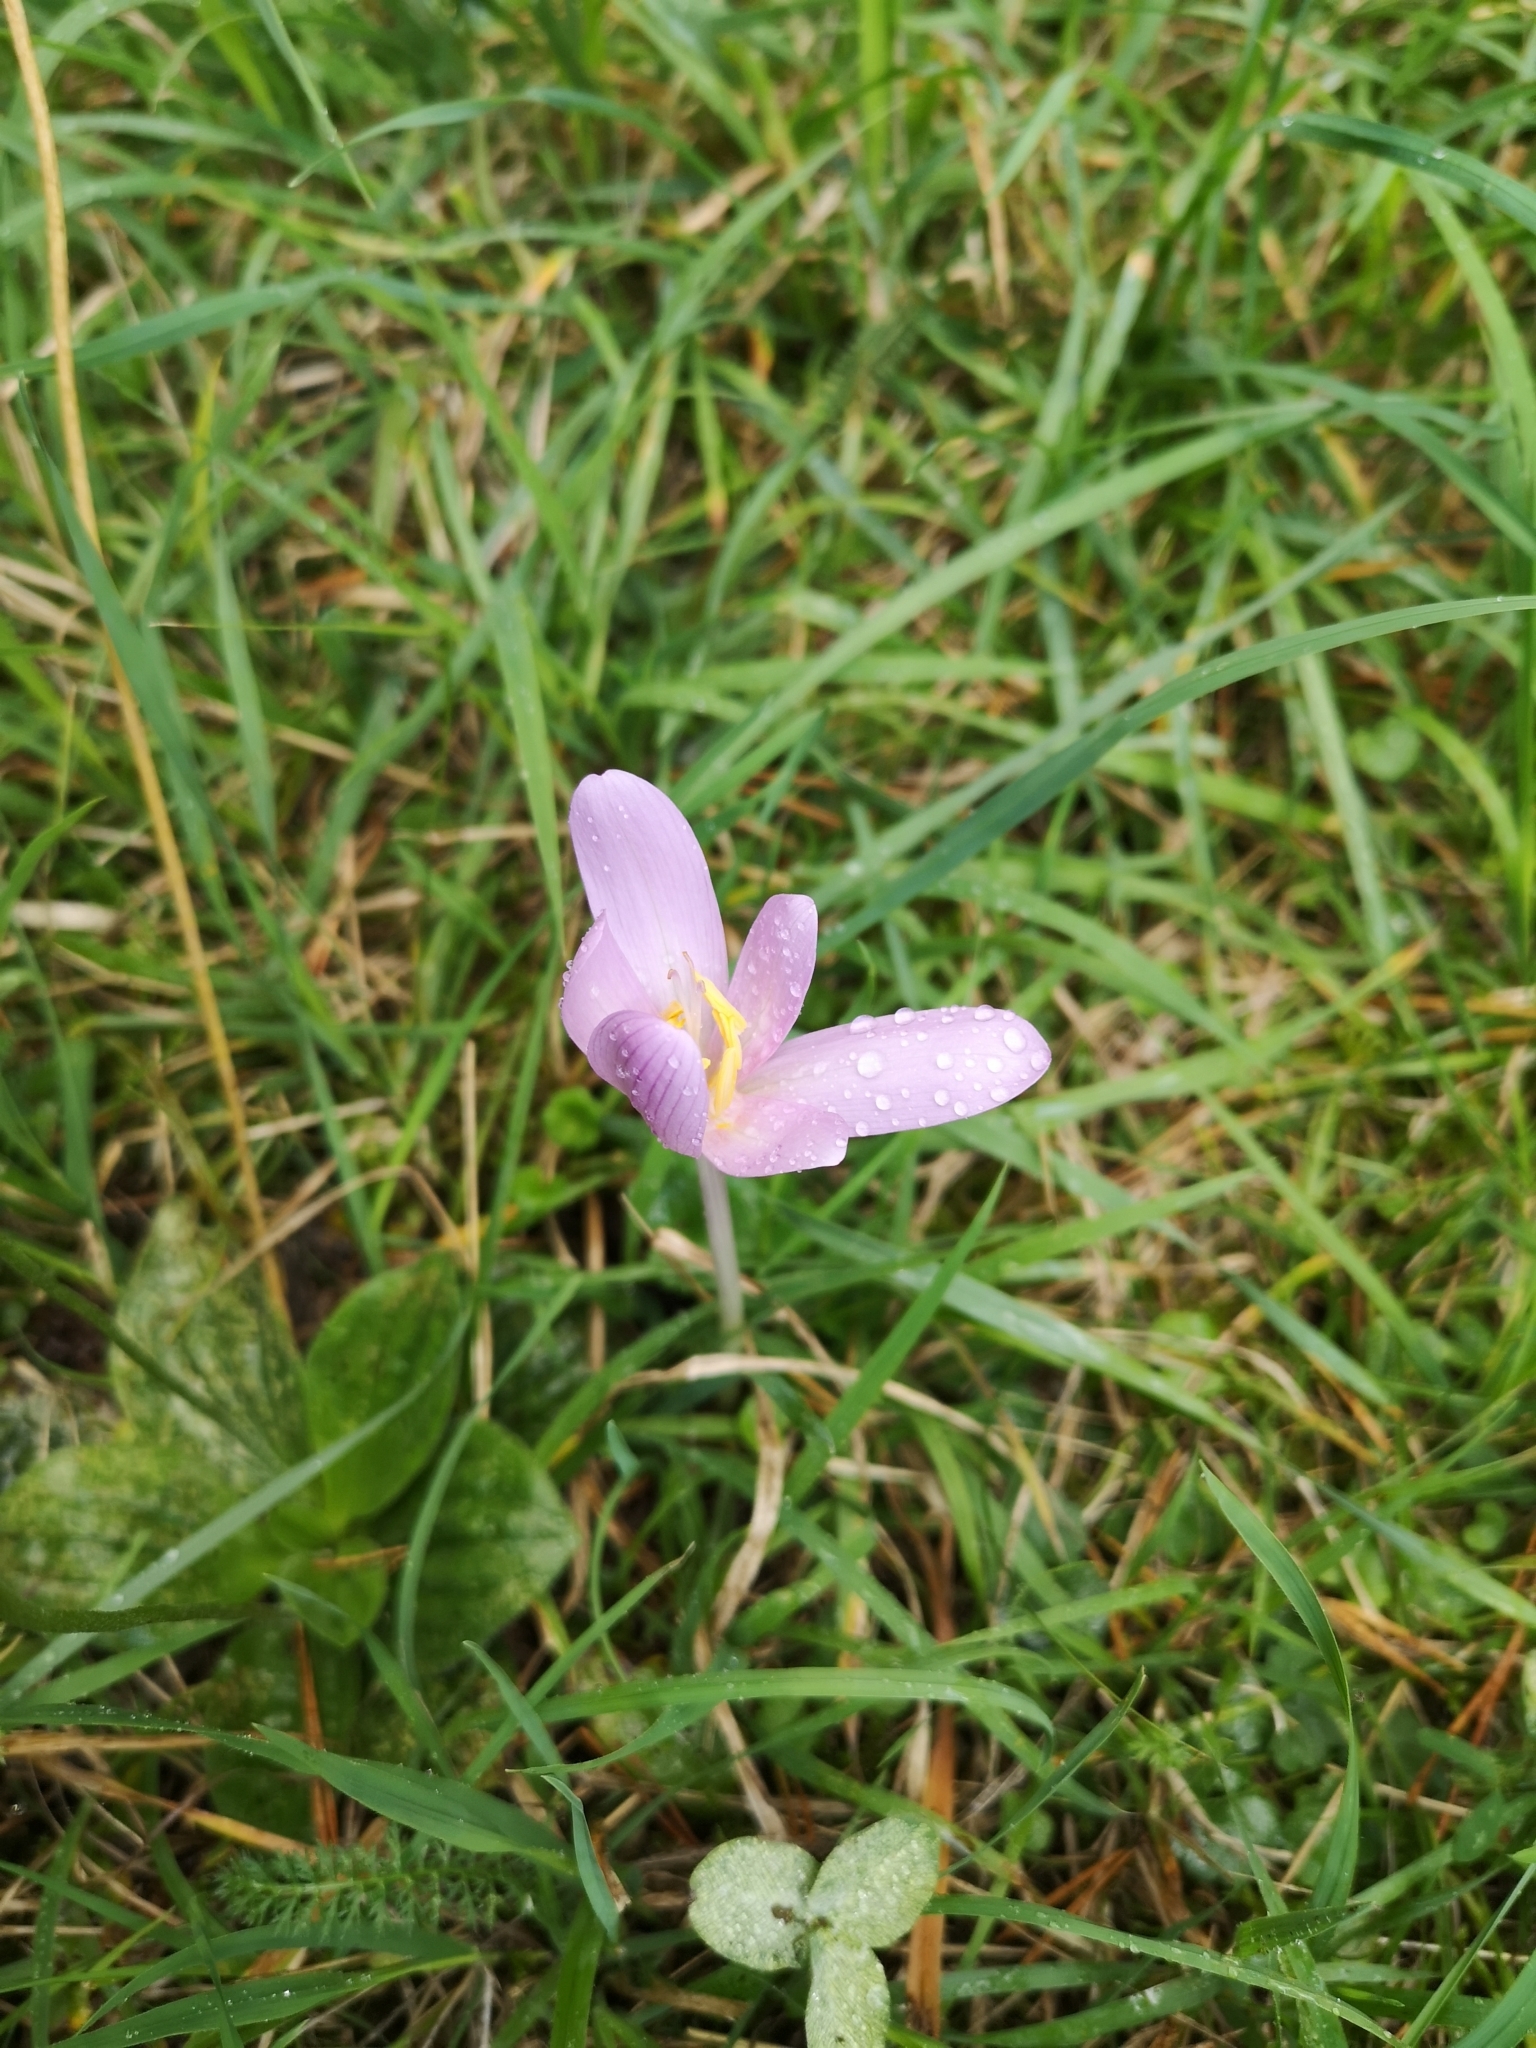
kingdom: Plantae
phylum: Tracheophyta
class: Liliopsida
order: Liliales
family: Colchicaceae
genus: Colchicum
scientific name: Colchicum autumnale
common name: Autumn crocus
